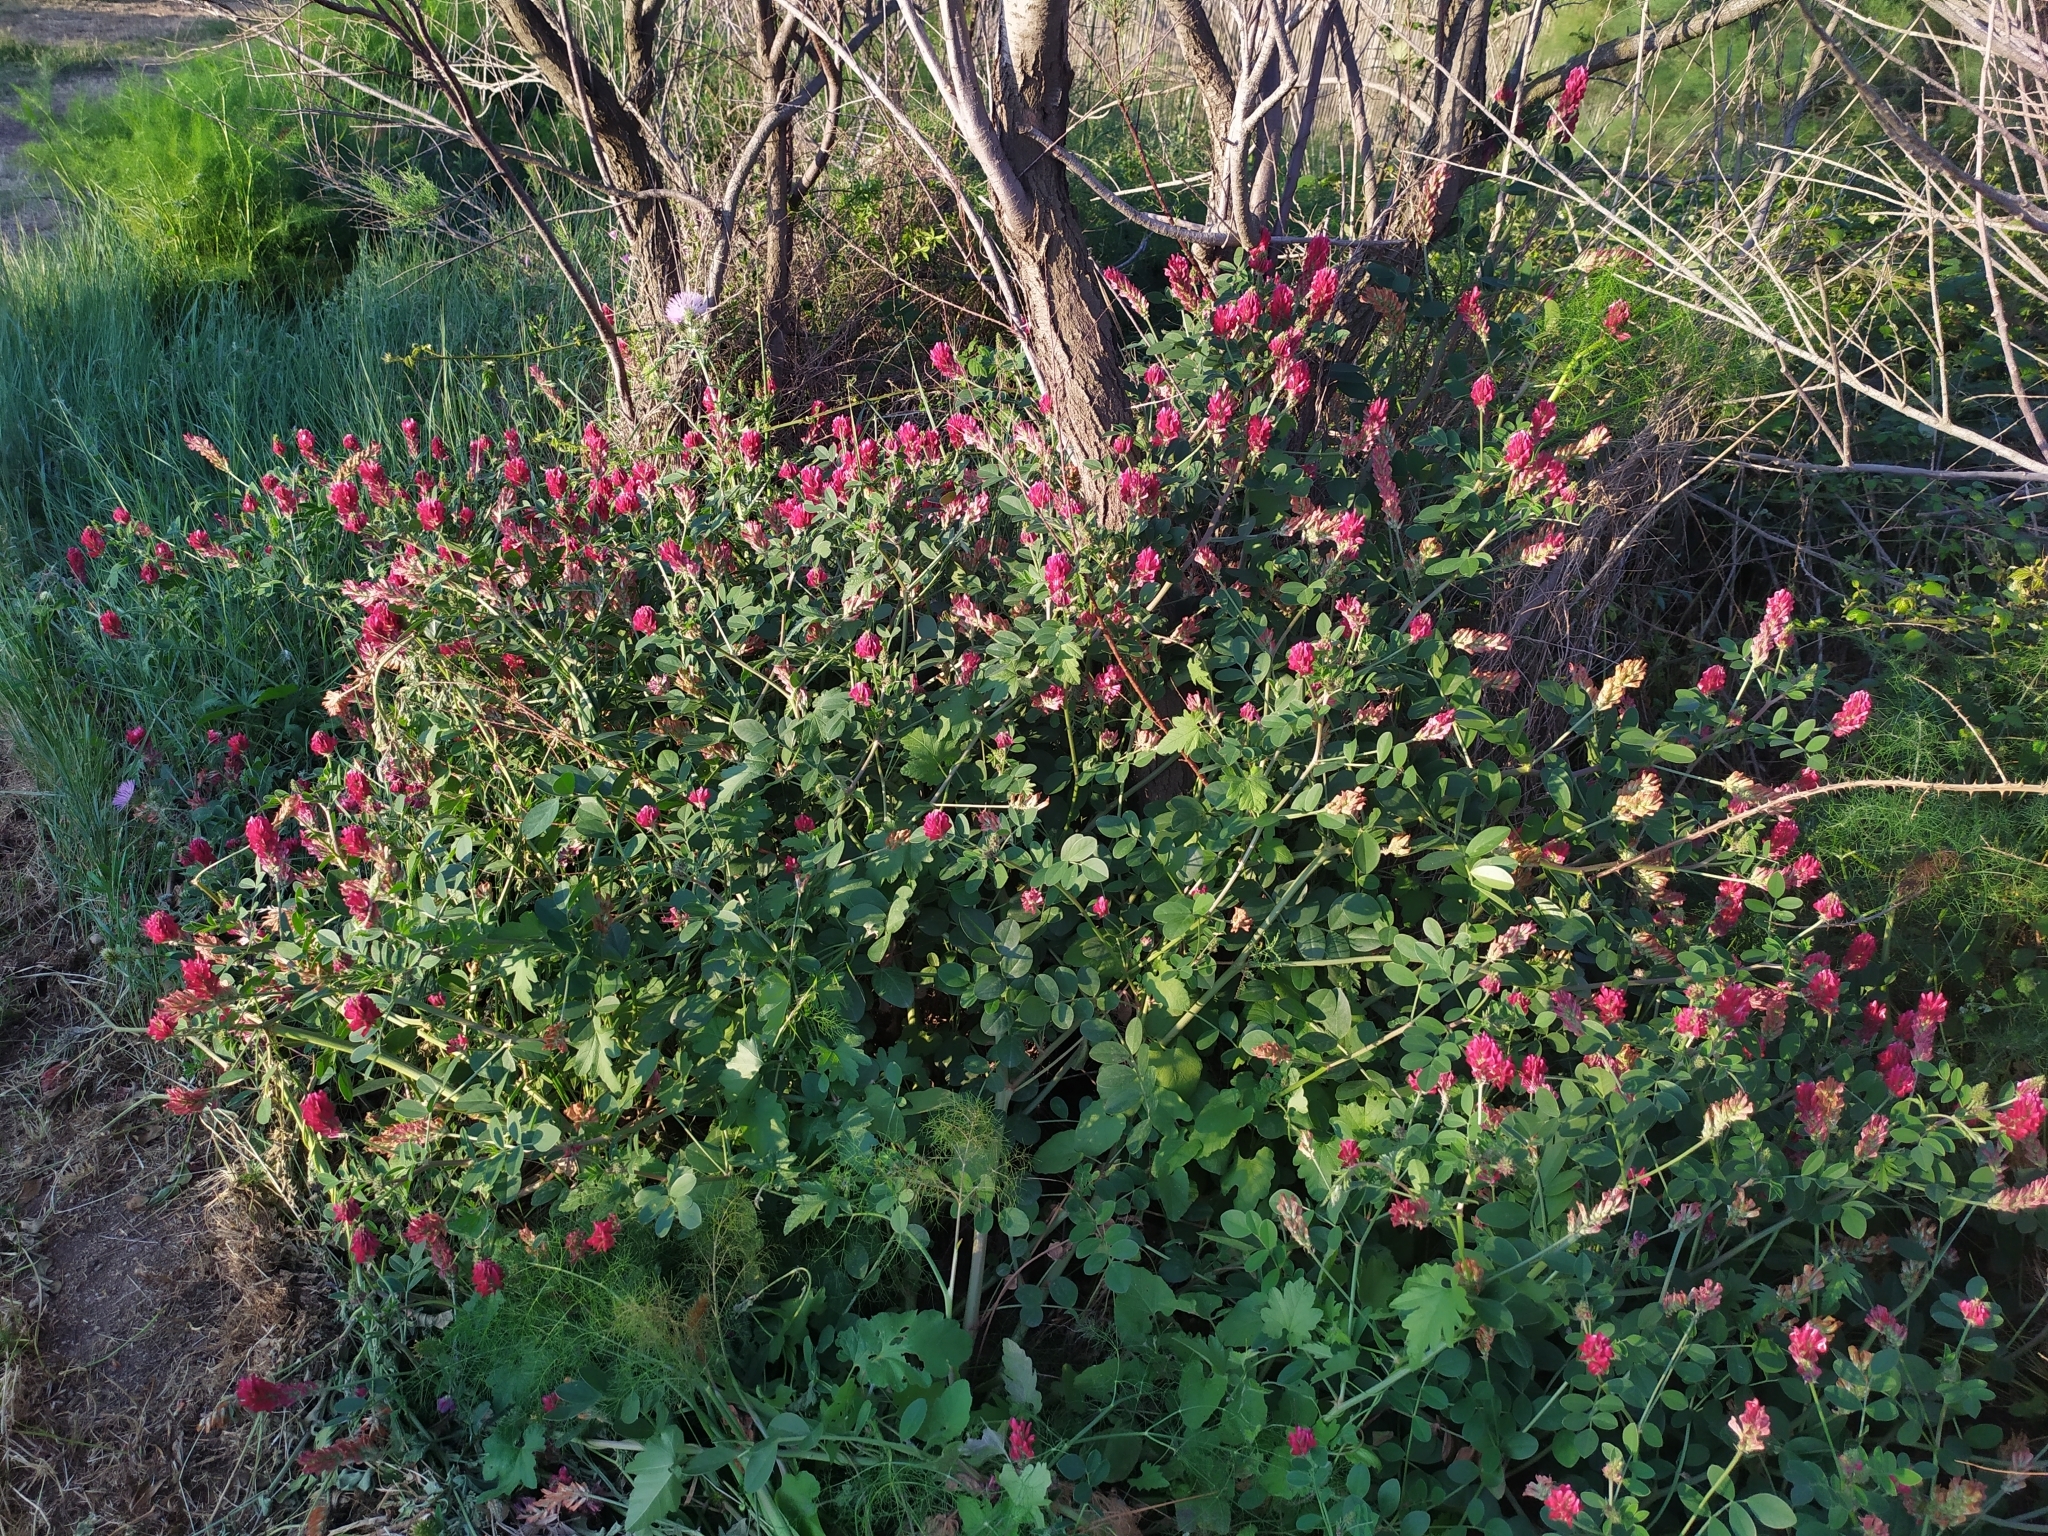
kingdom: Plantae
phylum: Tracheophyta
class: Magnoliopsida
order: Fabales
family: Fabaceae
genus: Sulla
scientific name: Sulla coronaria
